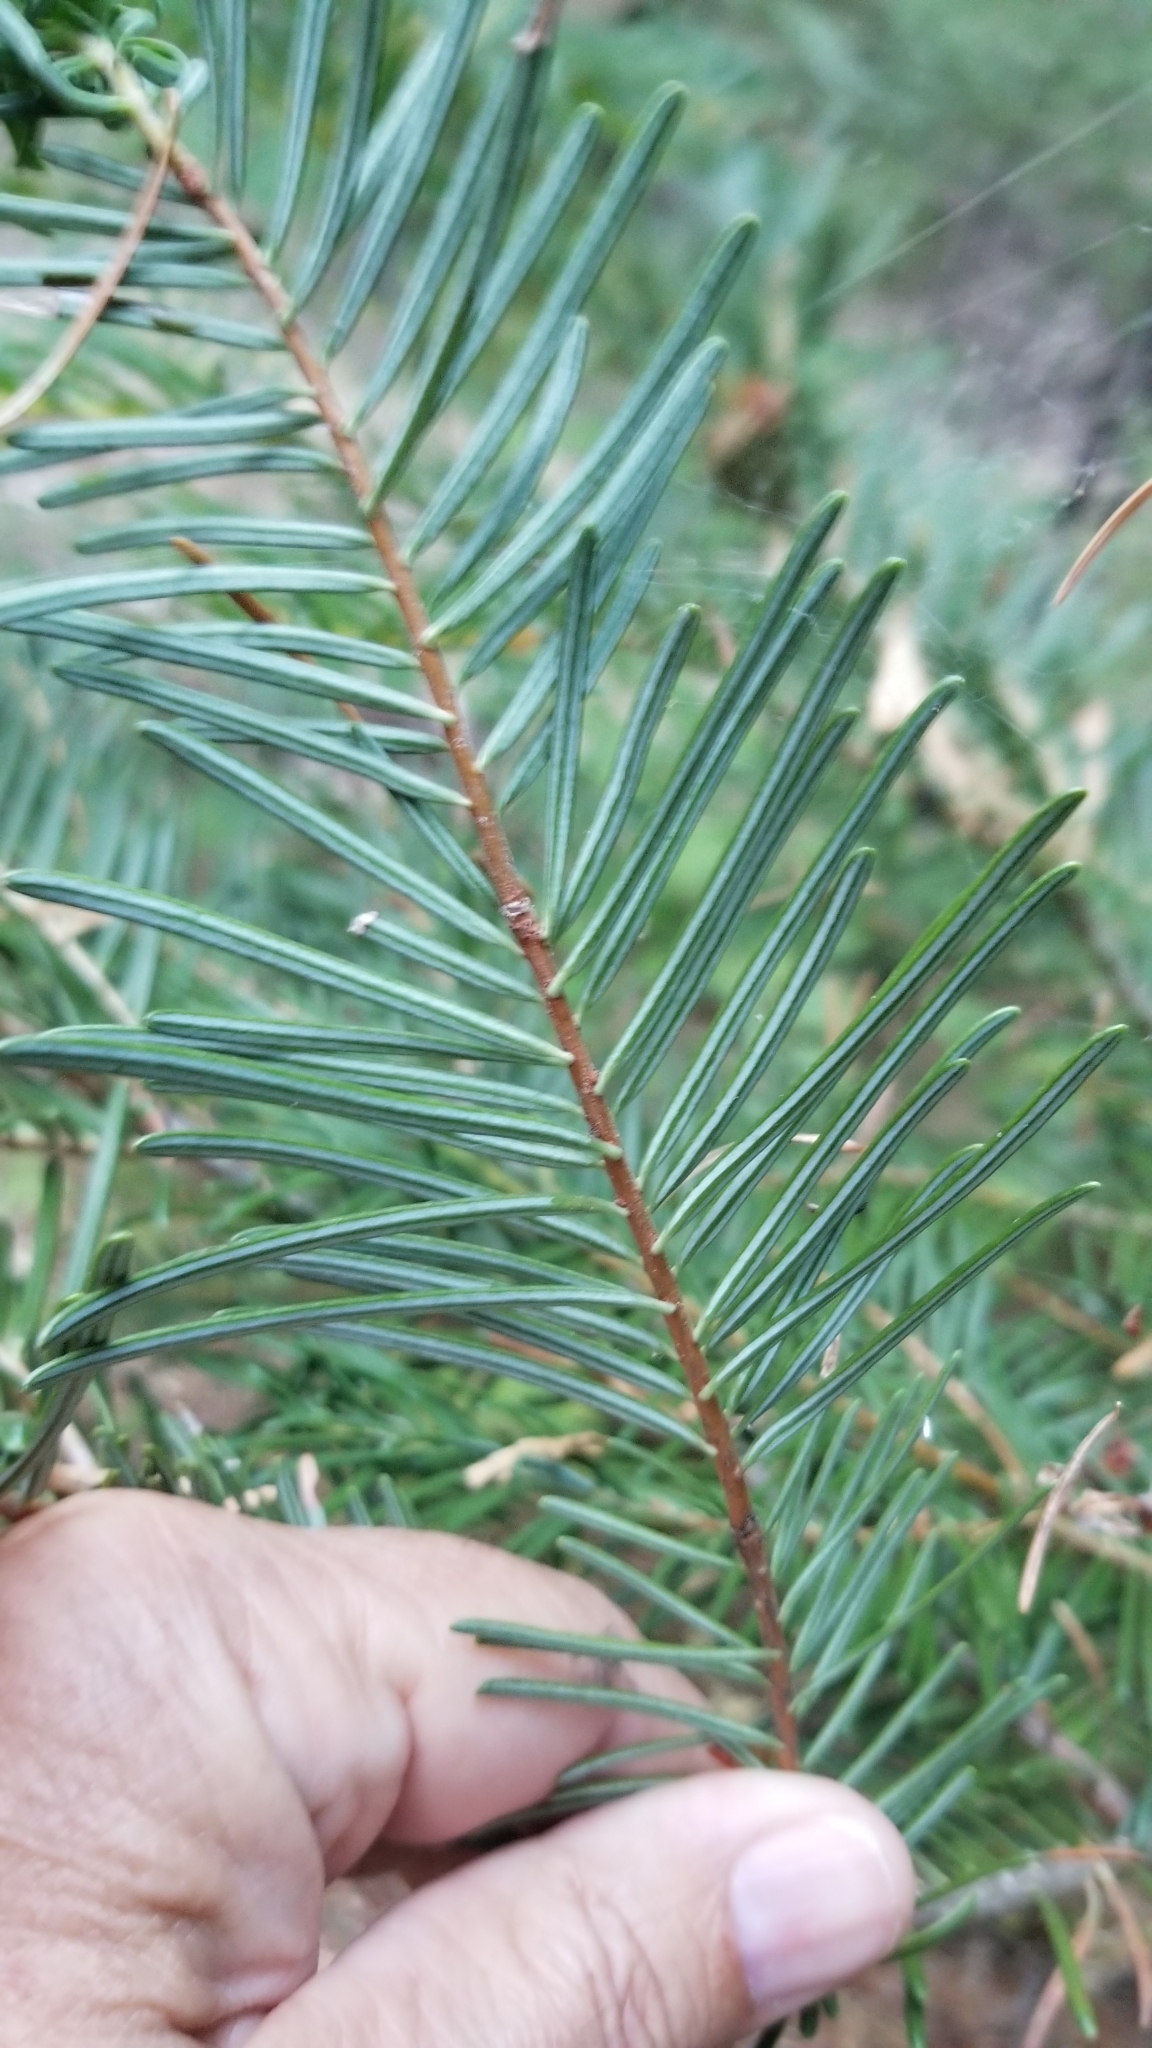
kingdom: Plantae
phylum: Tracheophyta
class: Pinopsida
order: Pinales
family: Pinaceae
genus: Abies
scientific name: Abies concolor
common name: Colorado fir
